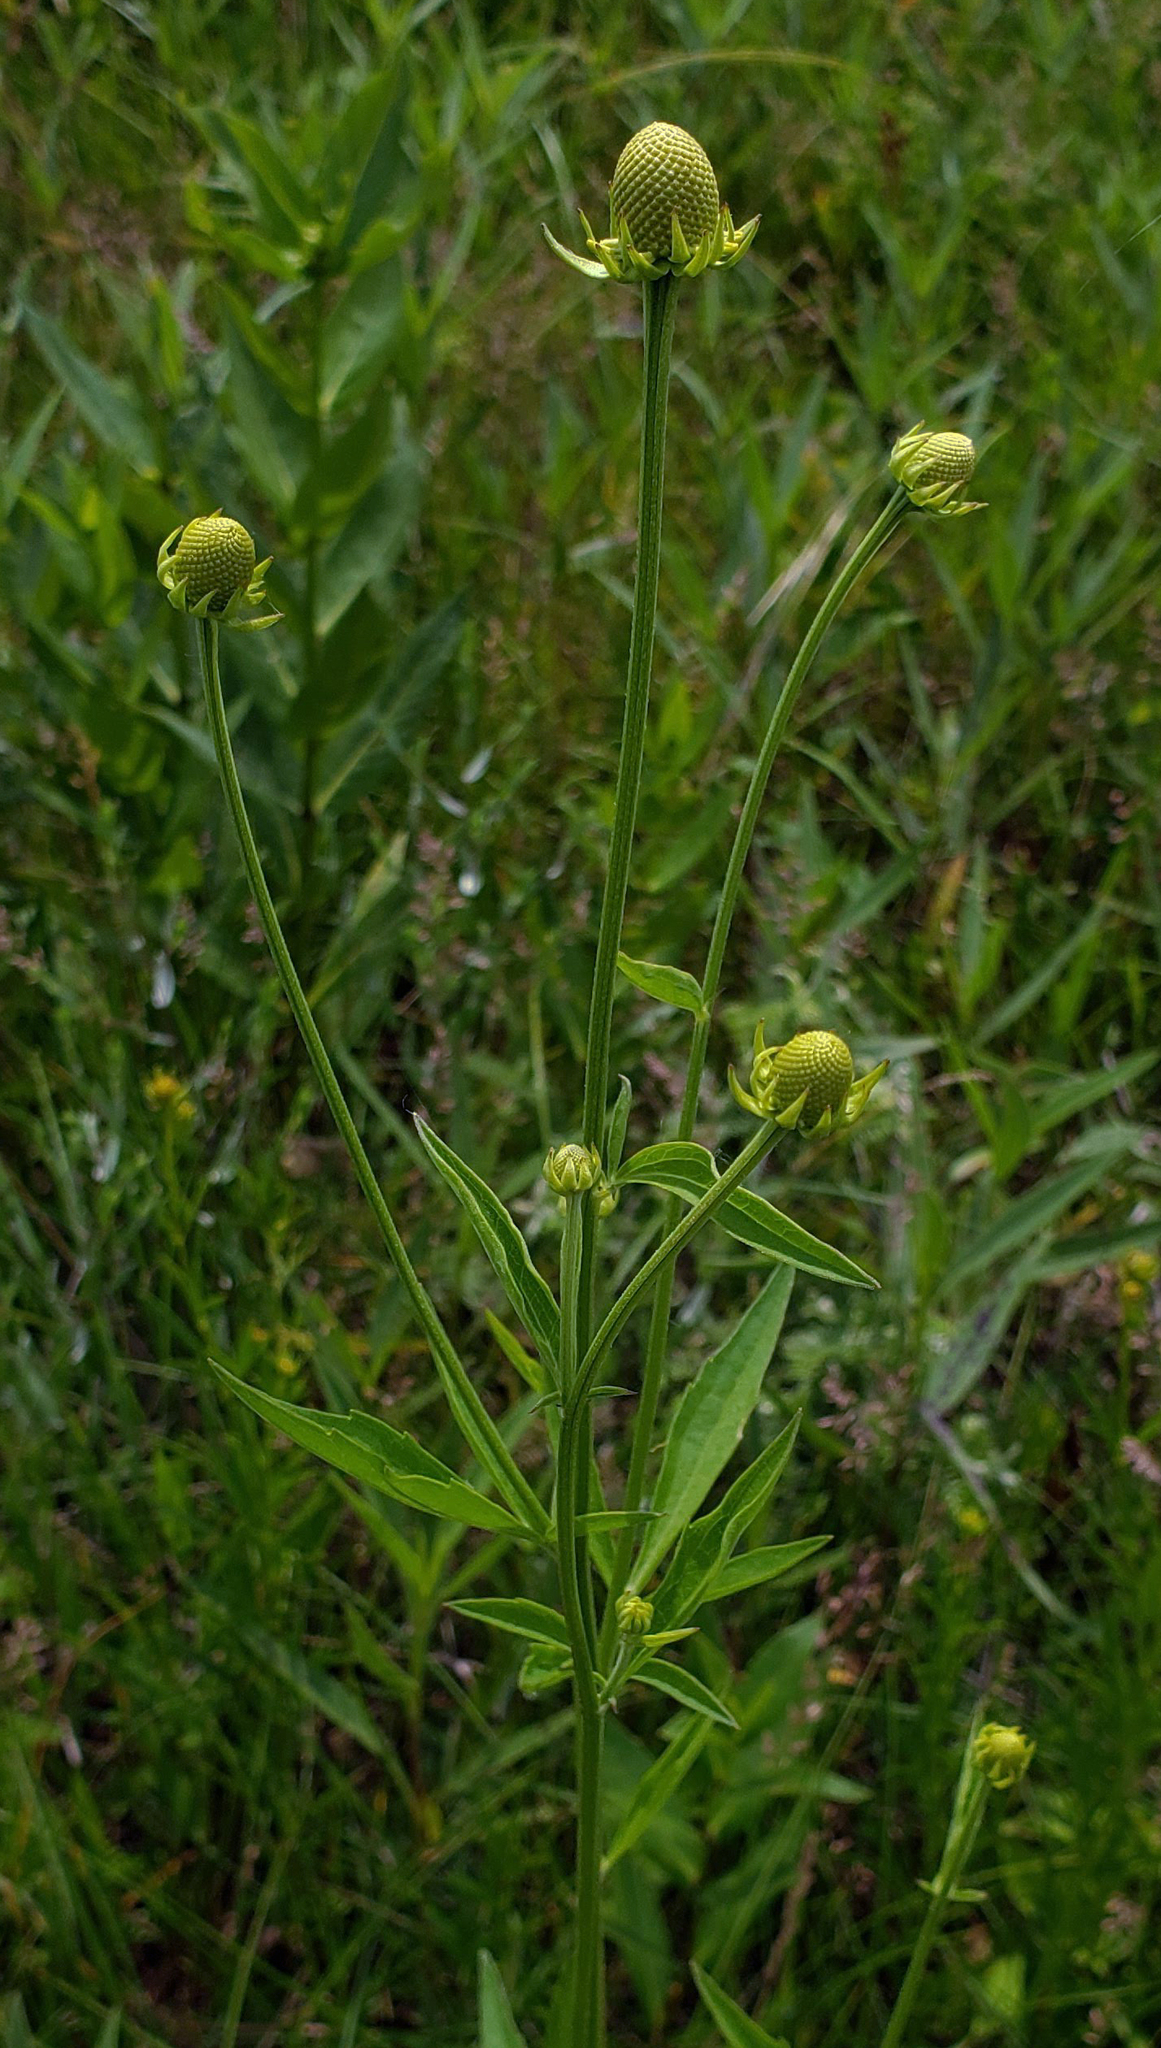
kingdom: Plantae
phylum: Tracheophyta
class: Magnoliopsida
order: Asterales
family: Asteraceae
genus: Ratibida
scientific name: Ratibida pinnata
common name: Drooping prairie-coneflower
